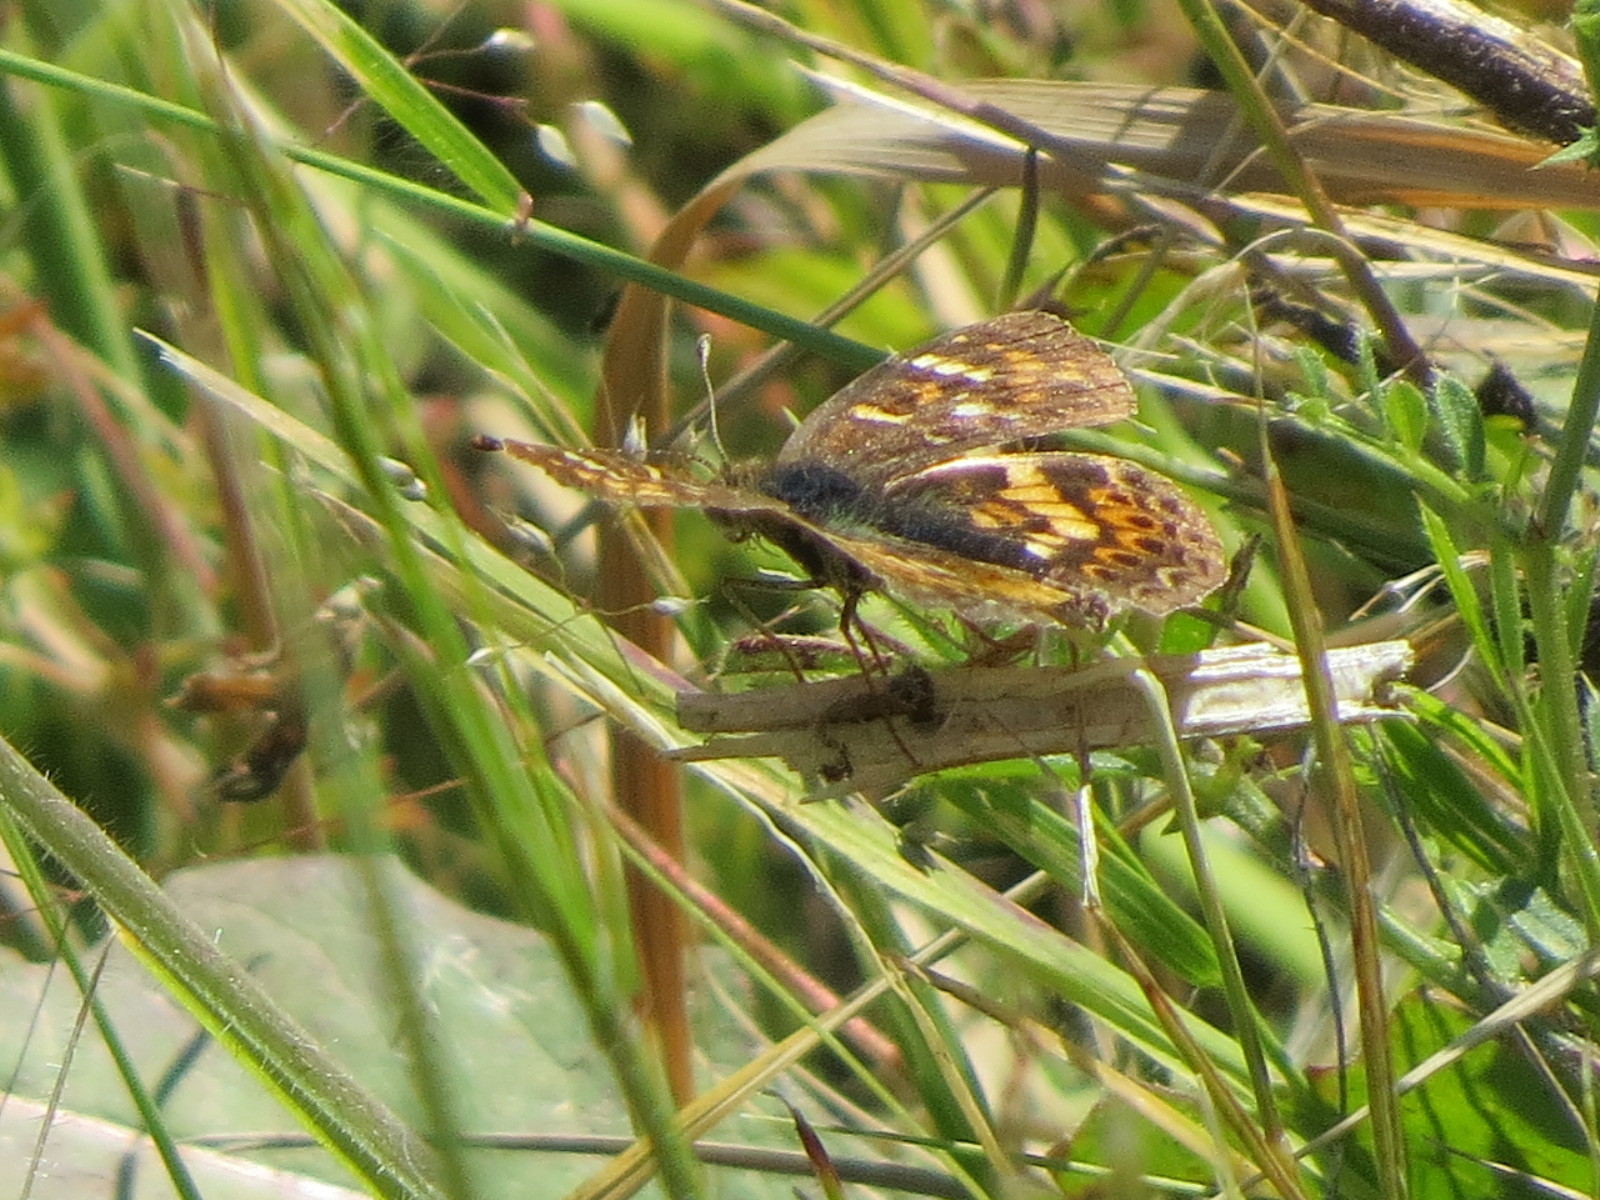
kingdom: Animalia
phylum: Arthropoda
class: Insecta
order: Lepidoptera
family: Nymphalidae
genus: Phyciodes
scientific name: Phyciodes tharos
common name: Pearl crescent
